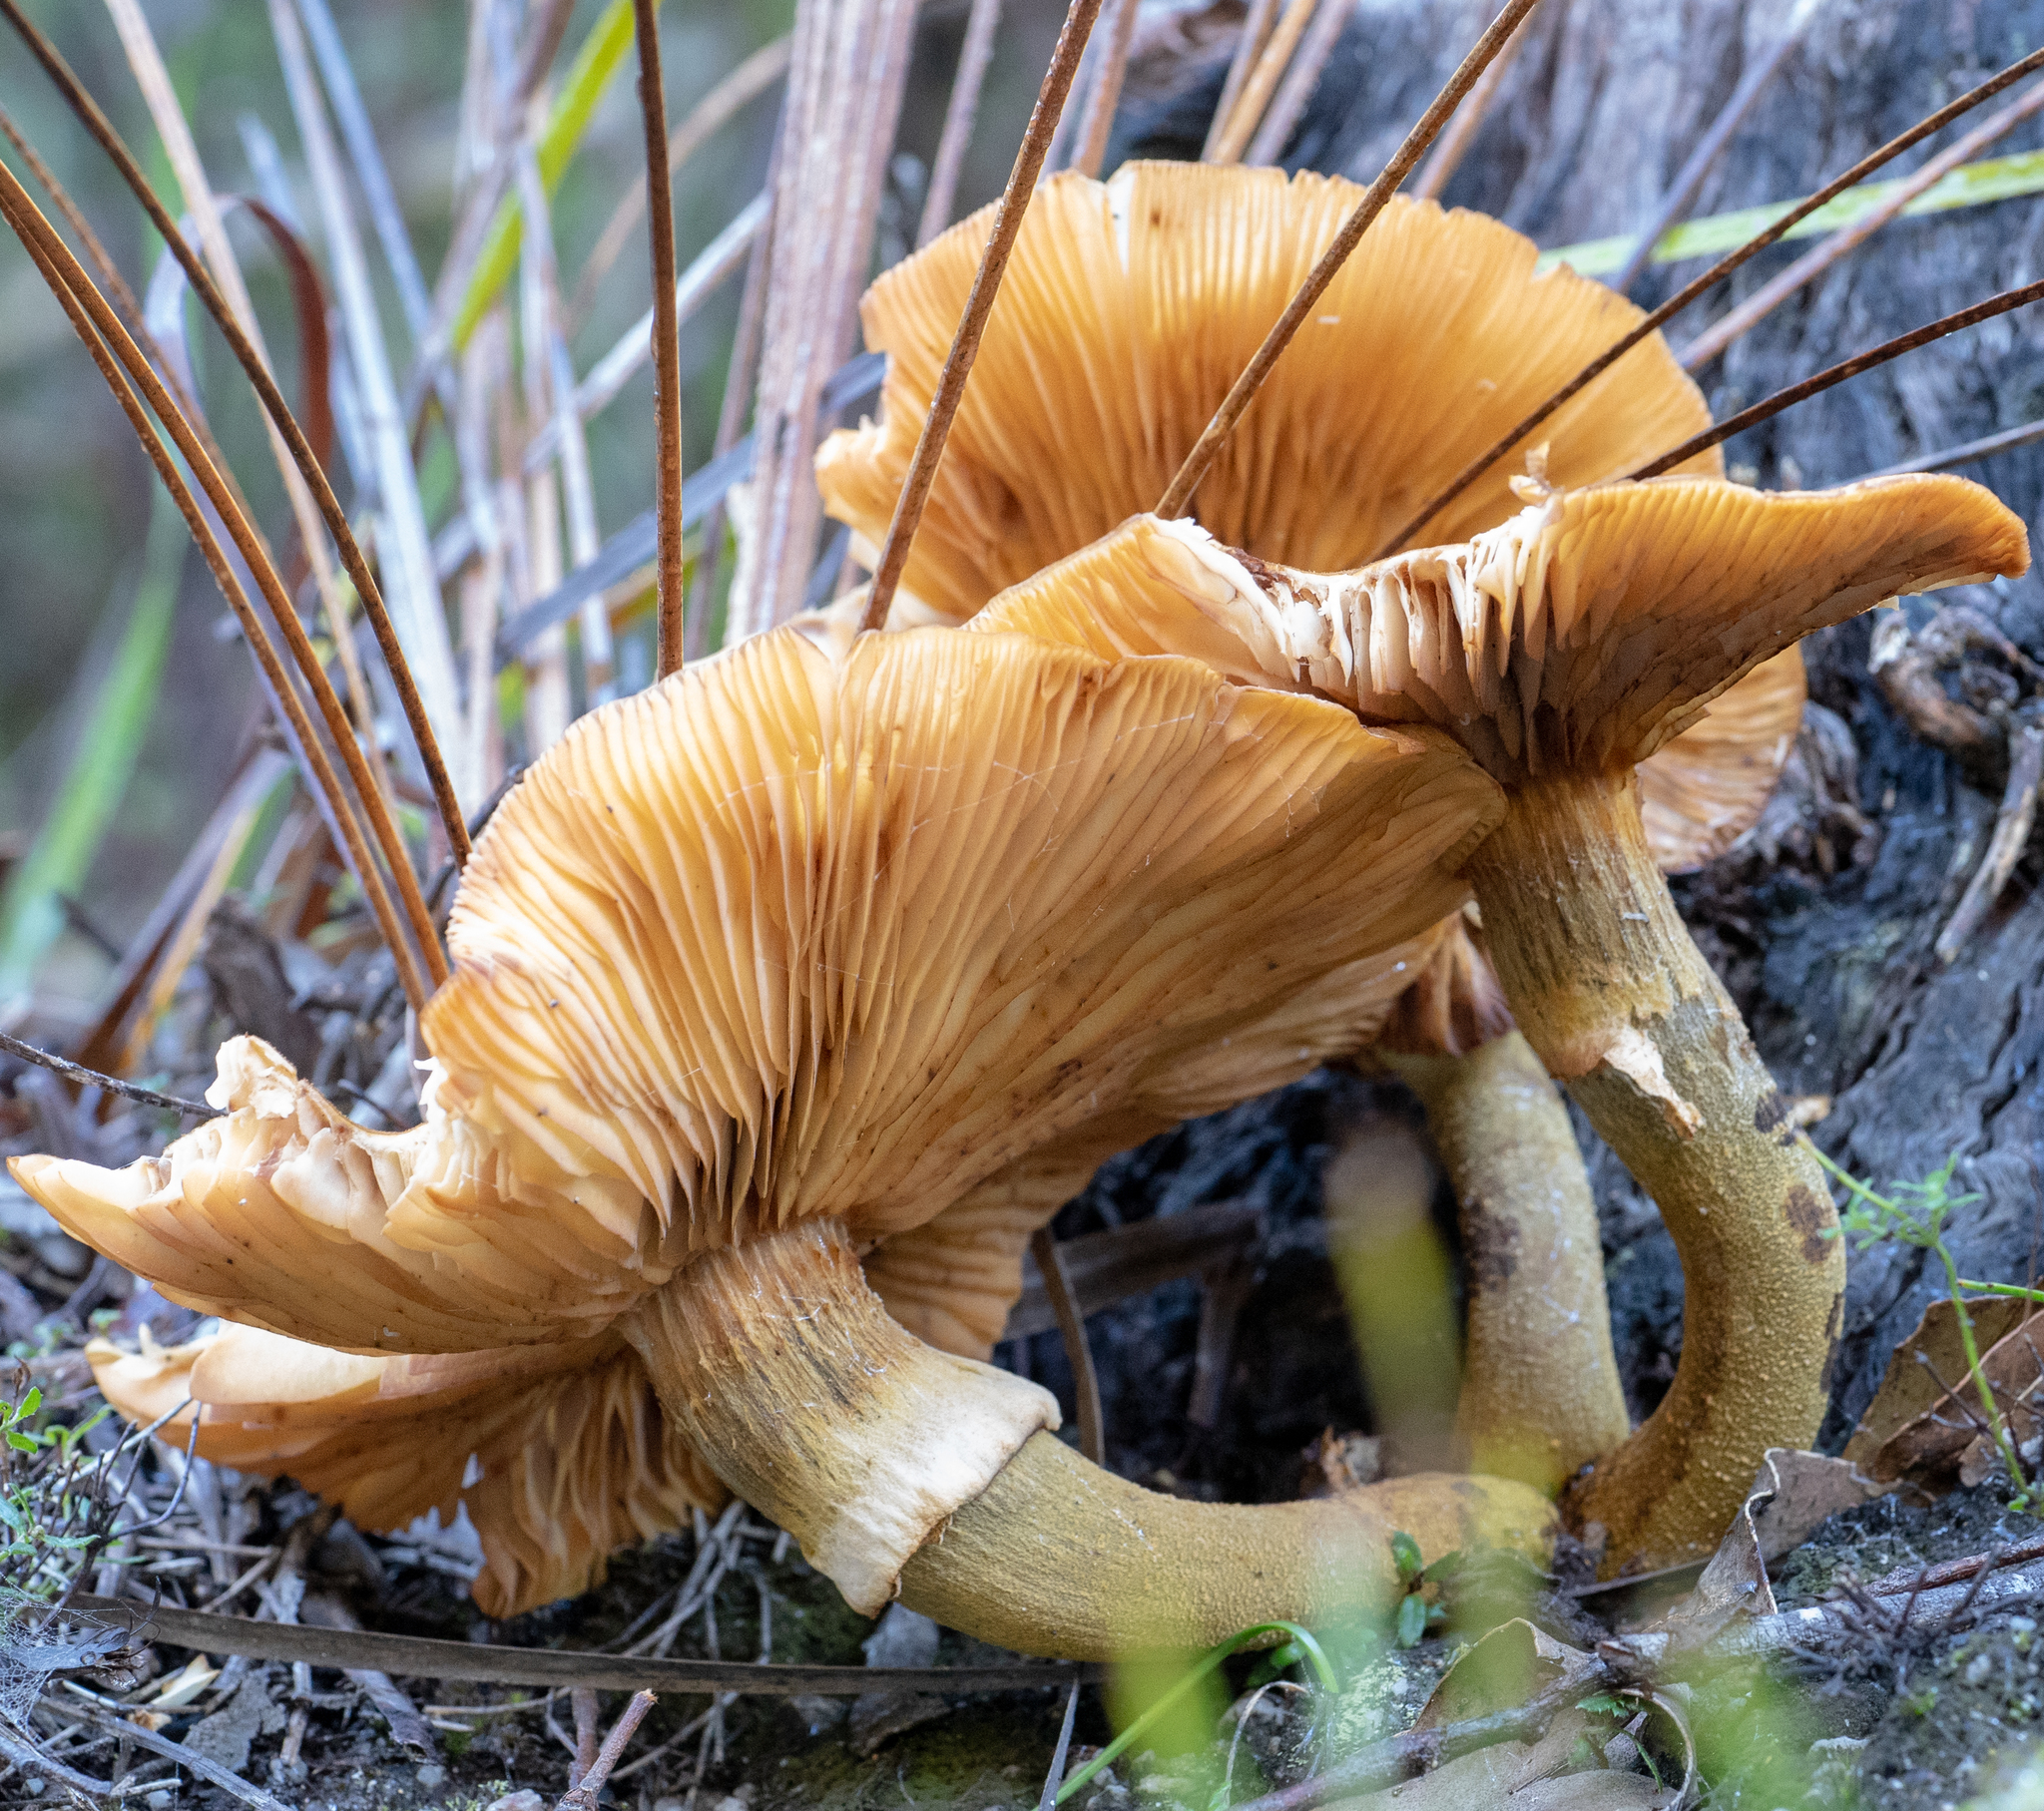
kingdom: Fungi
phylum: Basidiomycota
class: Agaricomycetes
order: Agaricales
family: Physalacriaceae
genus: Armillaria
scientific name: Armillaria luteobubalina
